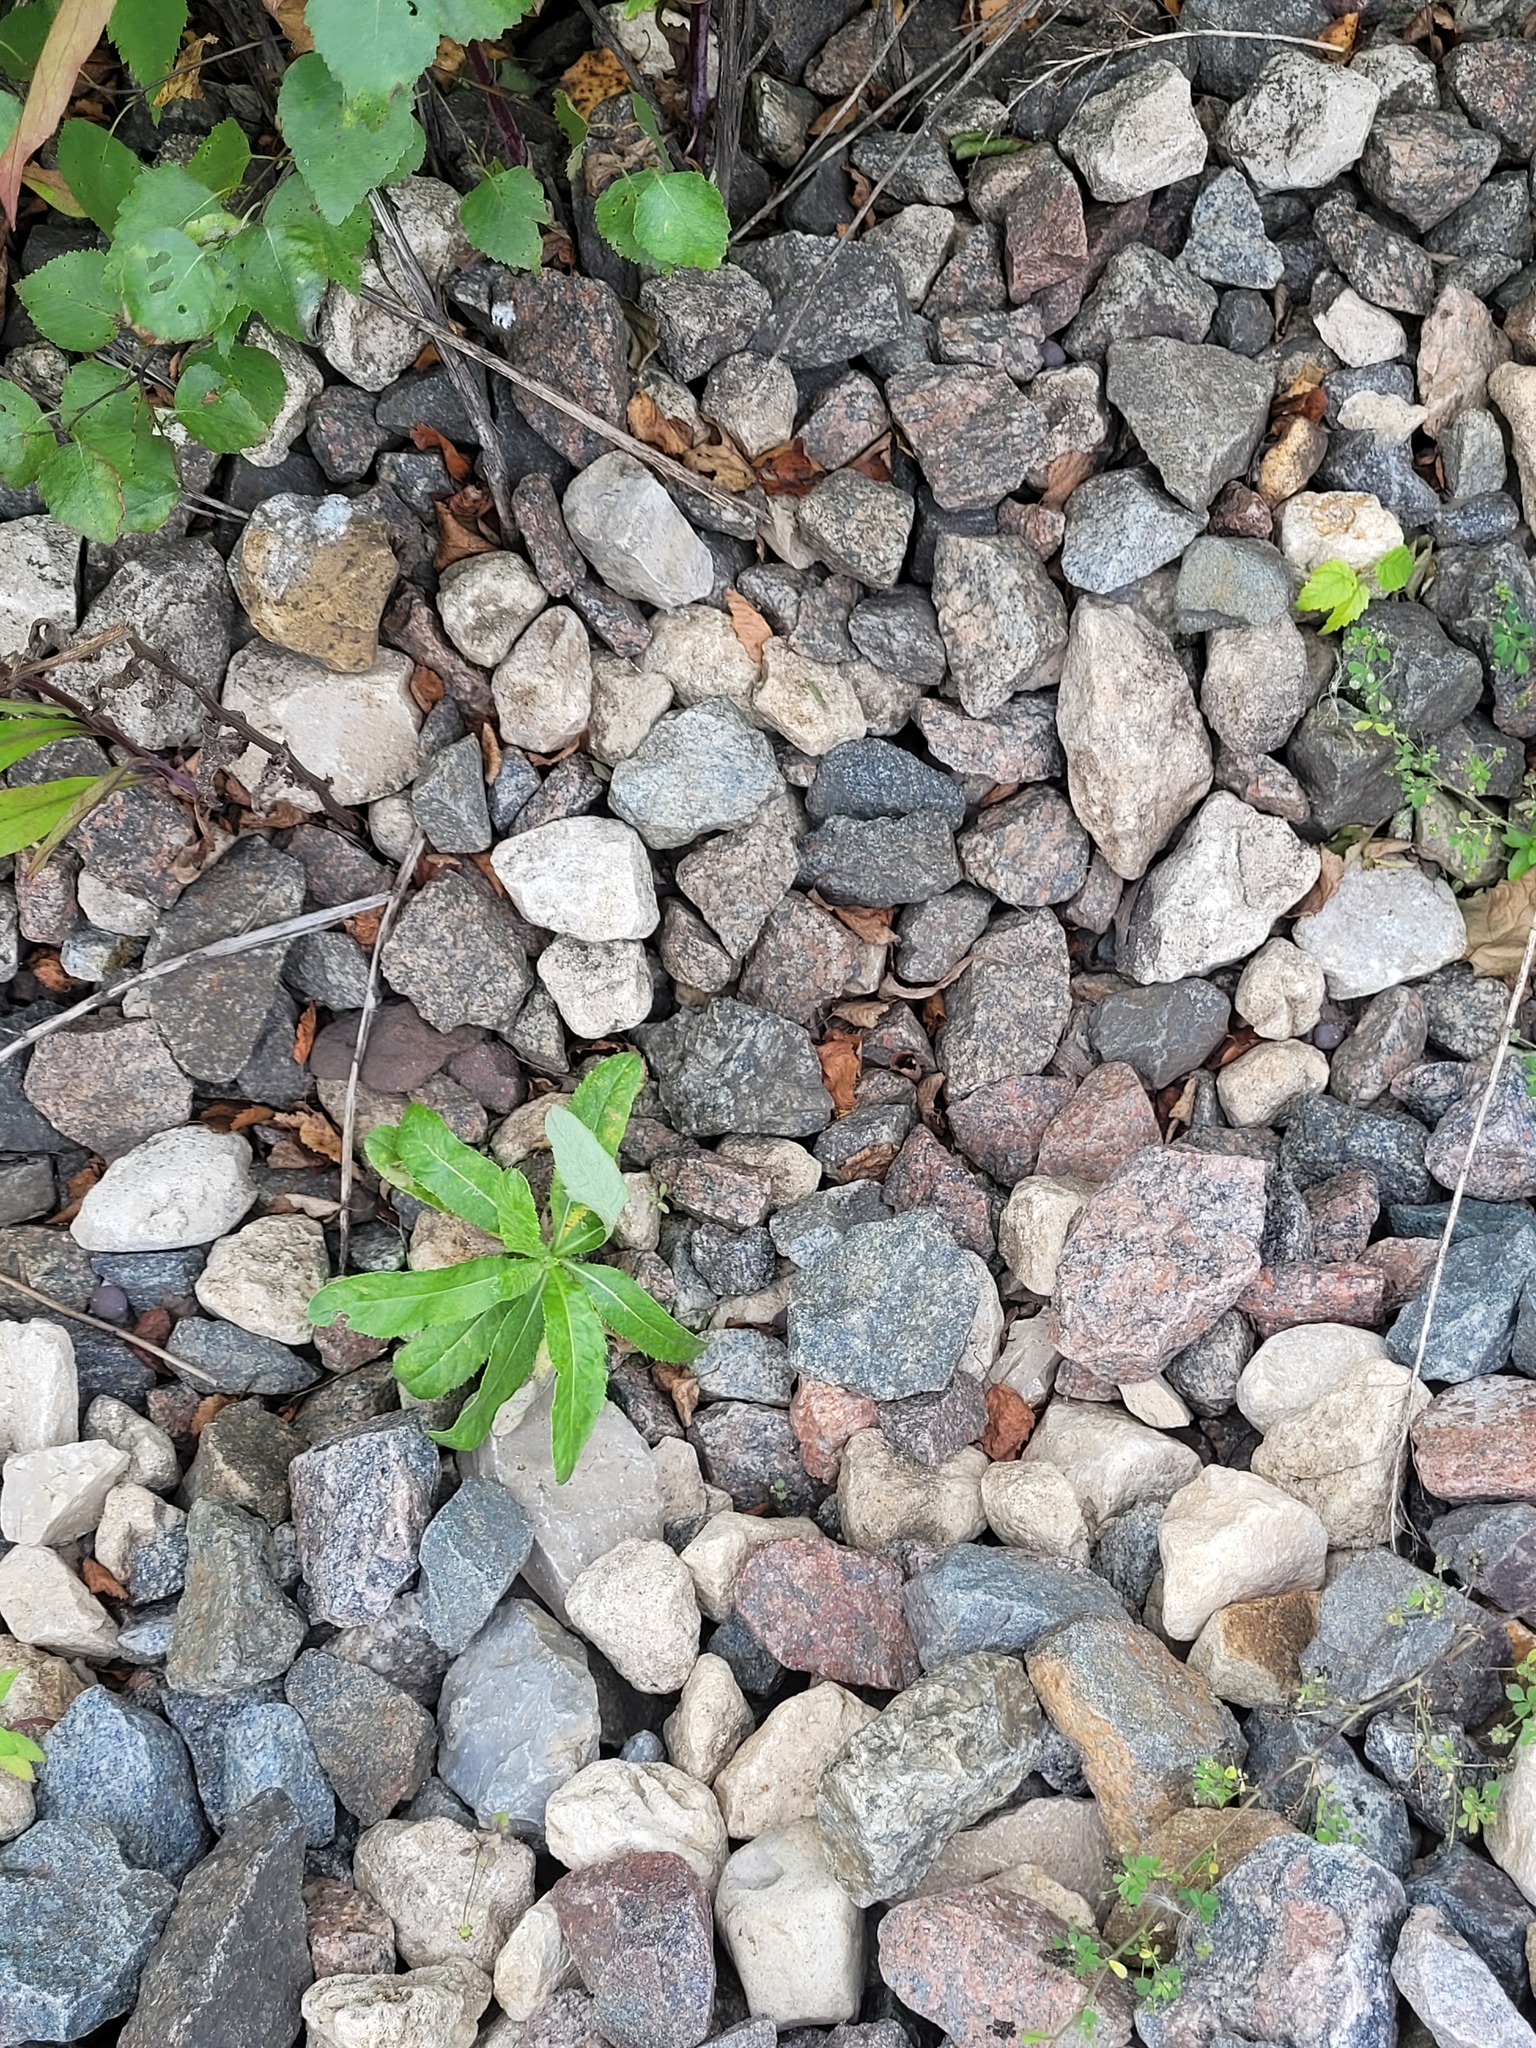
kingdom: Plantae
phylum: Tracheophyta
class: Magnoliopsida
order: Asterales
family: Asteraceae
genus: Cirsium
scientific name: Cirsium arvense
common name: Creeping thistle
